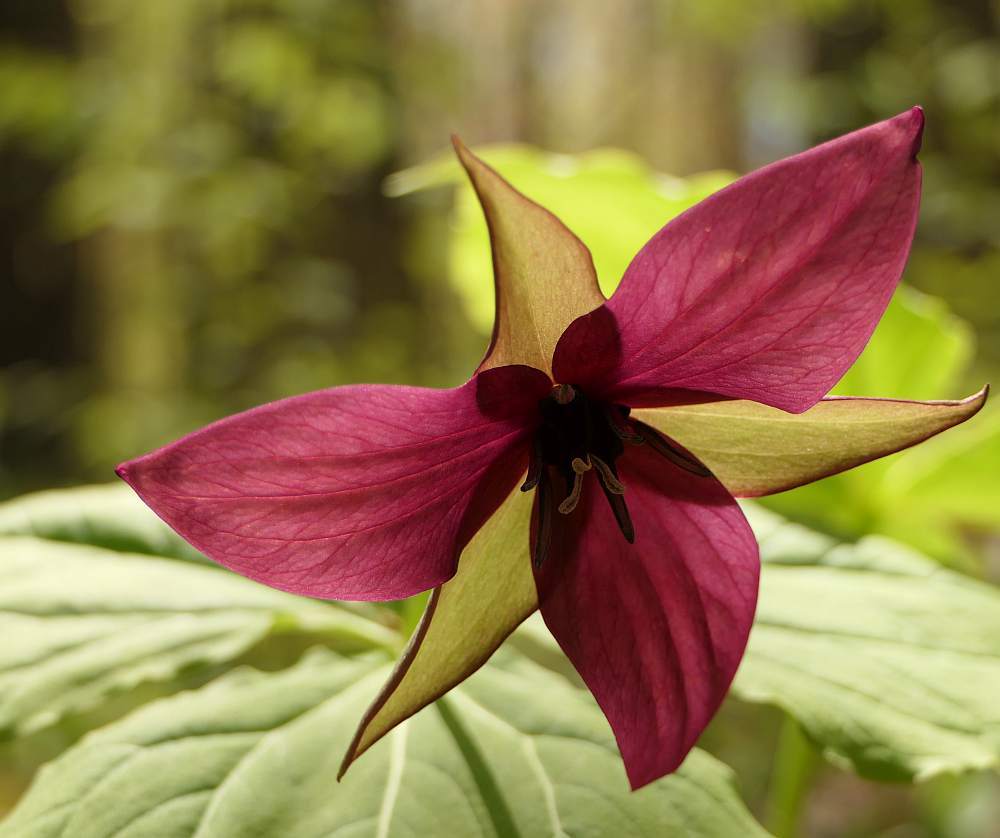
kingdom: Plantae
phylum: Tracheophyta
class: Liliopsida
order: Liliales
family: Melanthiaceae
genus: Trillium
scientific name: Trillium erectum
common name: Purple trillium
